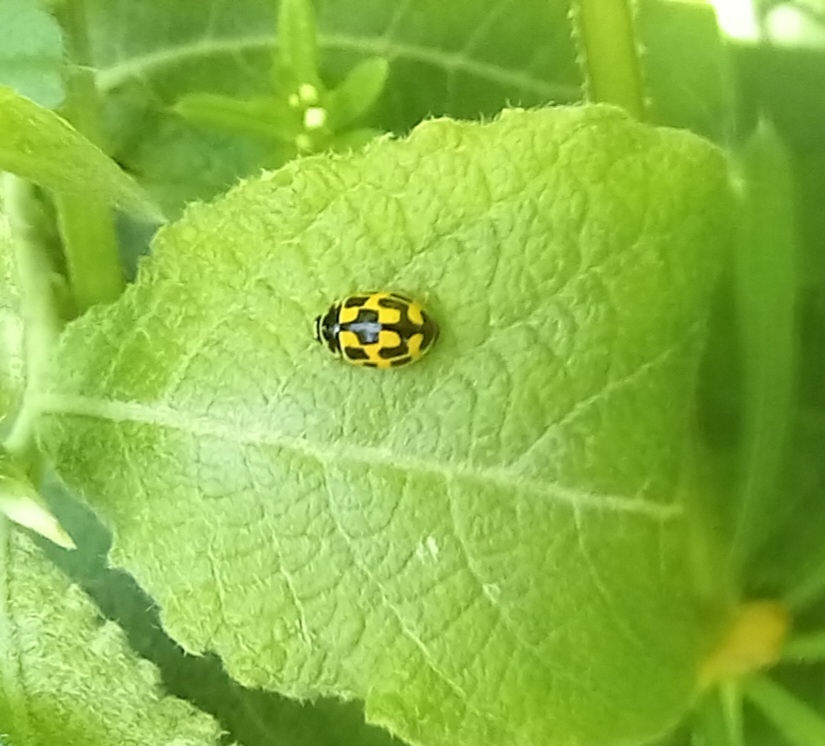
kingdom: Animalia
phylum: Arthropoda
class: Insecta
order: Coleoptera
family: Coccinellidae
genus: Propylaea
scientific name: Propylaea quatuordecimpunctata
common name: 14-spotted ladybird beetle
